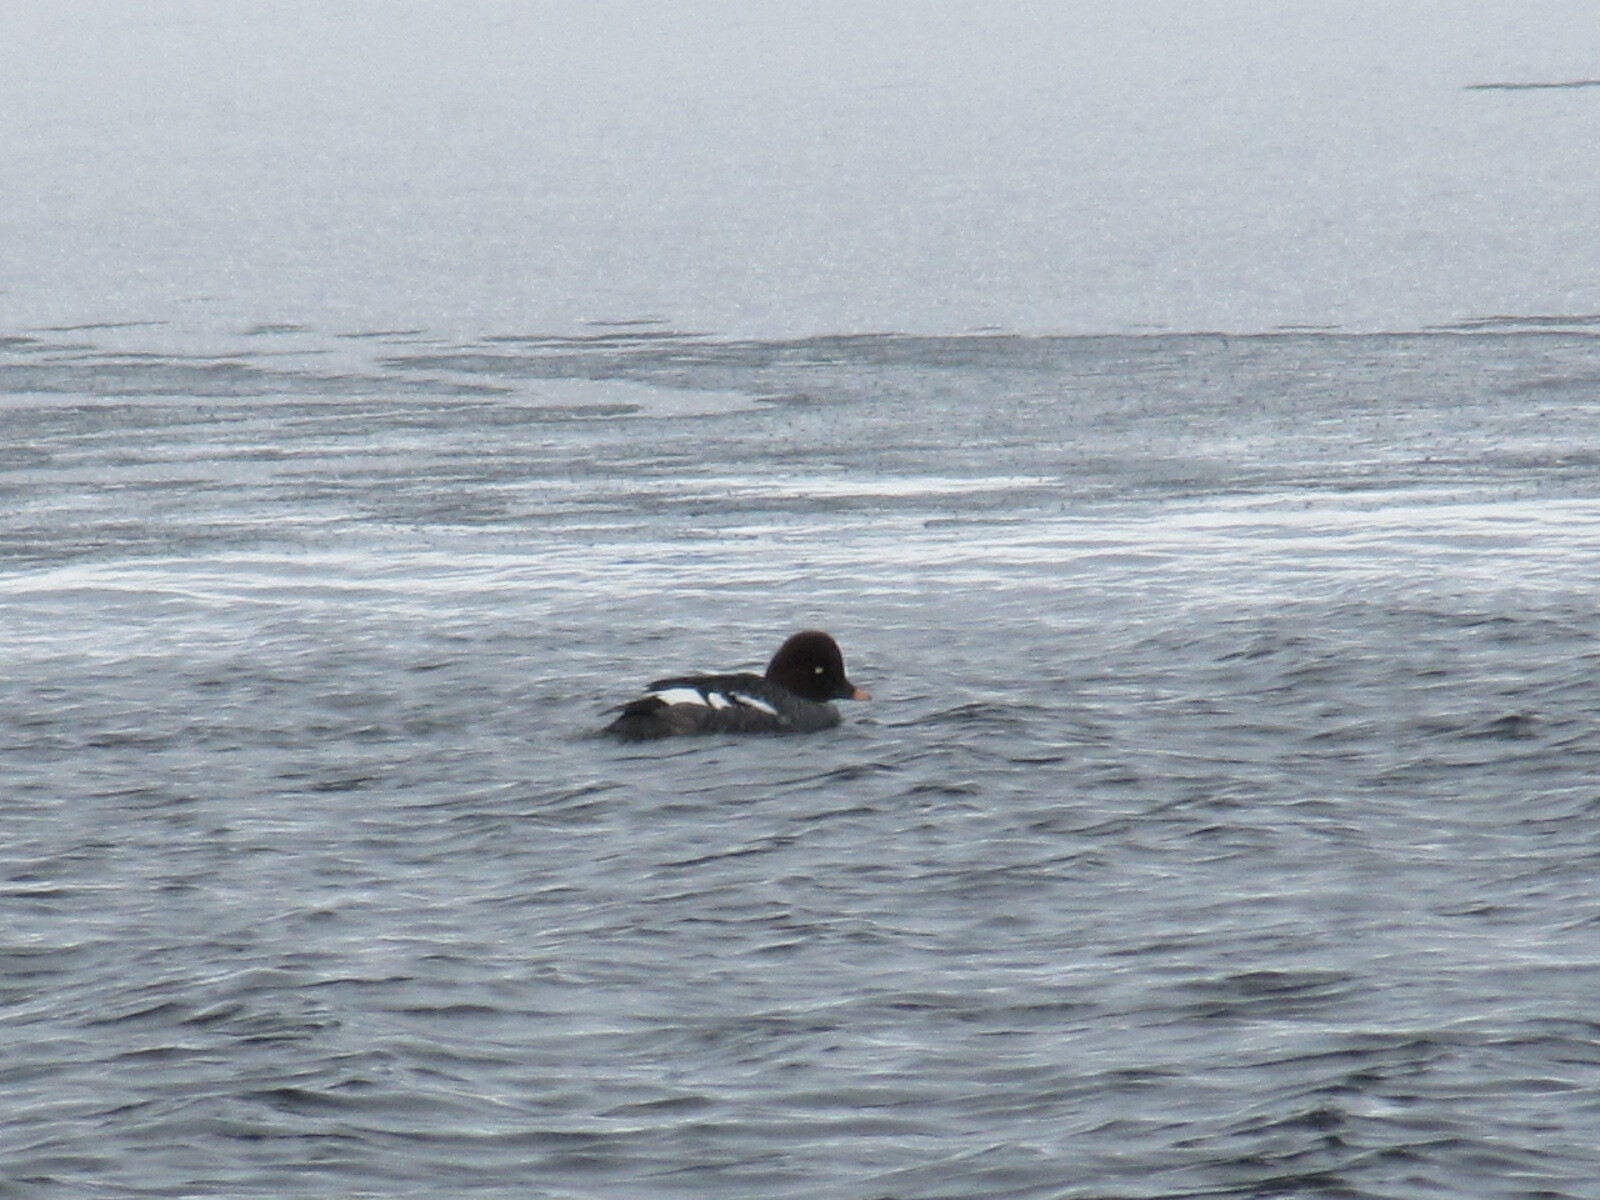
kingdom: Animalia
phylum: Chordata
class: Aves
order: Anseriformes
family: Anatidae
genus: Bucephala
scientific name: Bucephala clangula
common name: Common goldeneye
